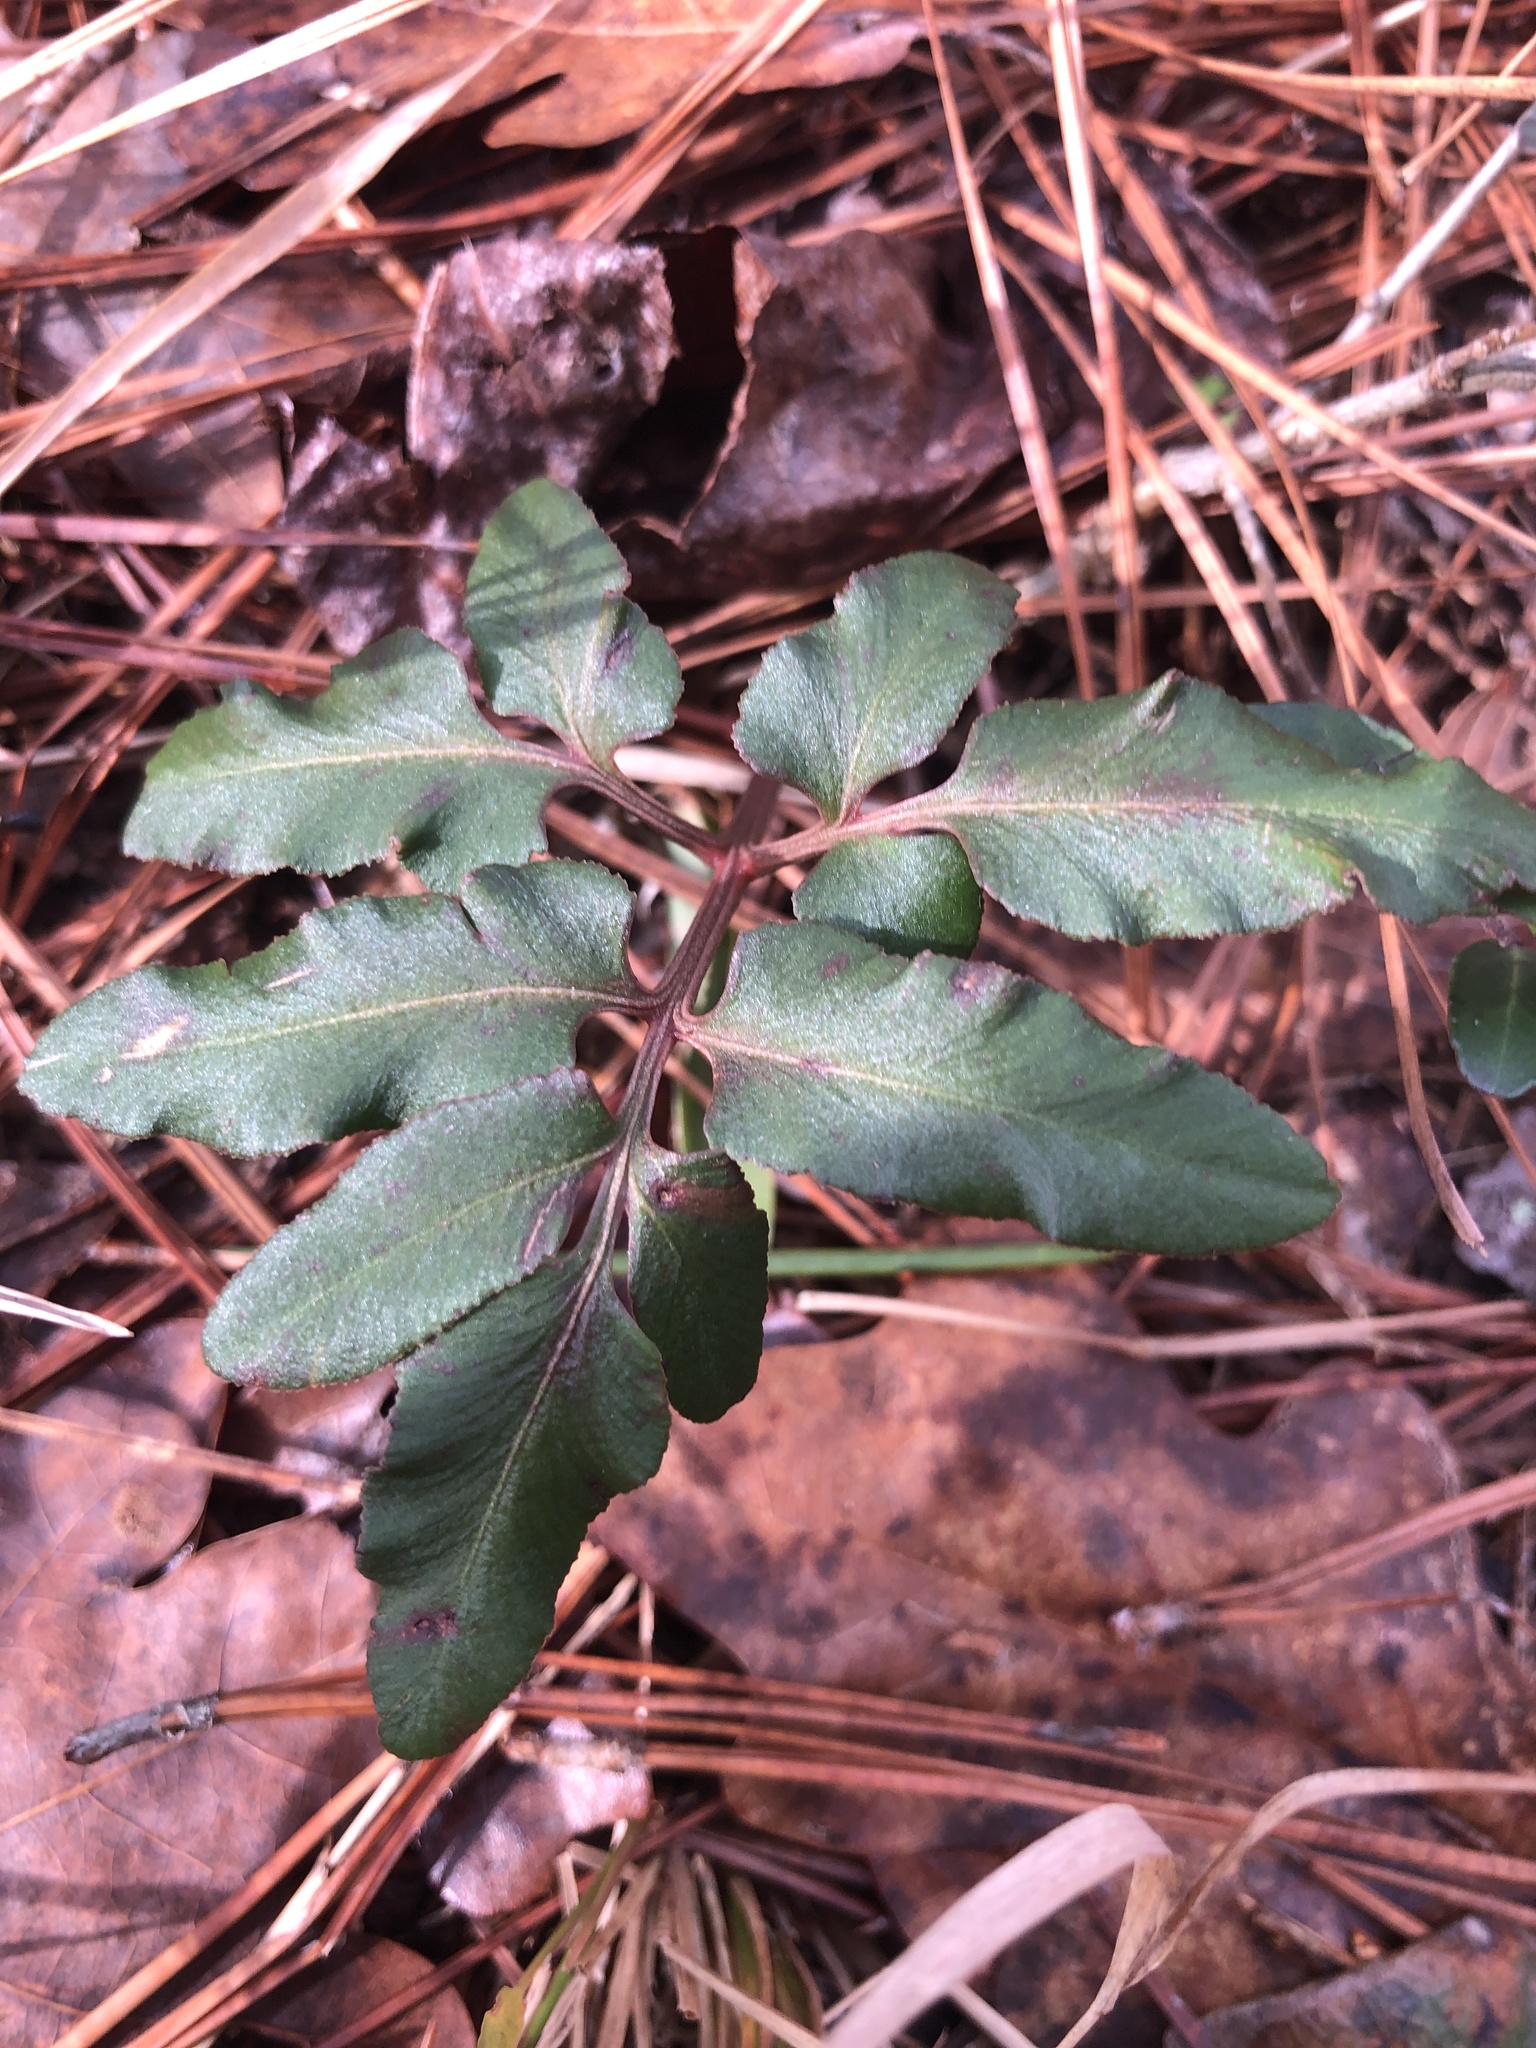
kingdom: Plantae
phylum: Tracheophyta
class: Polypodiopsida
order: Ophioglossales
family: Ophioglossaceae
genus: Sceptridium
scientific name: Sceptridium biternatum
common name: Sparse-lobed grapefern
